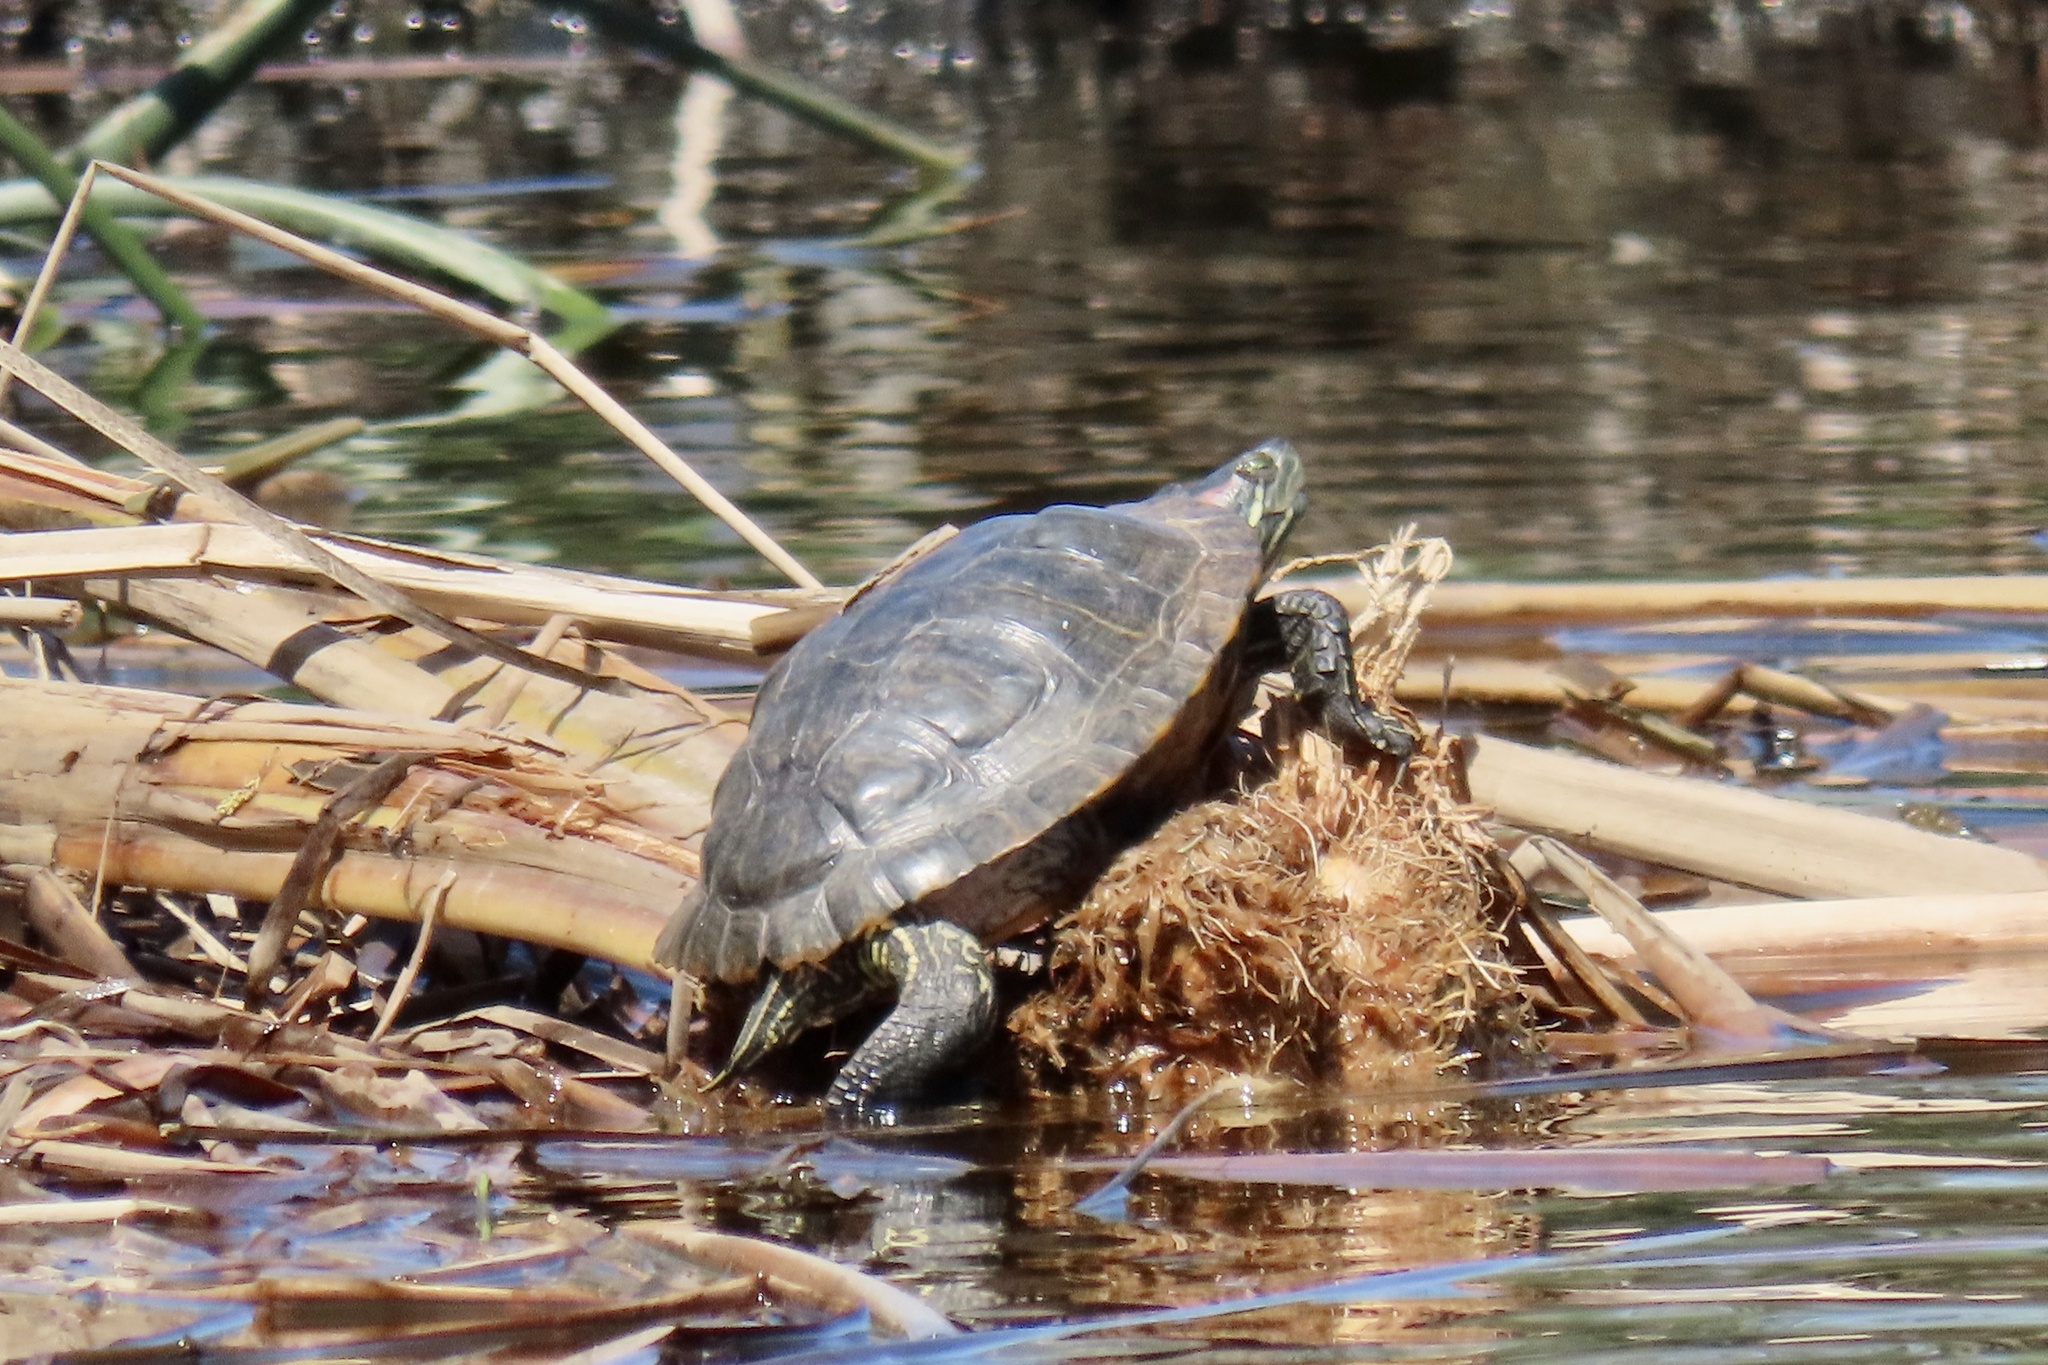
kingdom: Animalia
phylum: Chordata
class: Testudines
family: Emydidae
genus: Trachemys
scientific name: Trachemys scripta
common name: Slider
